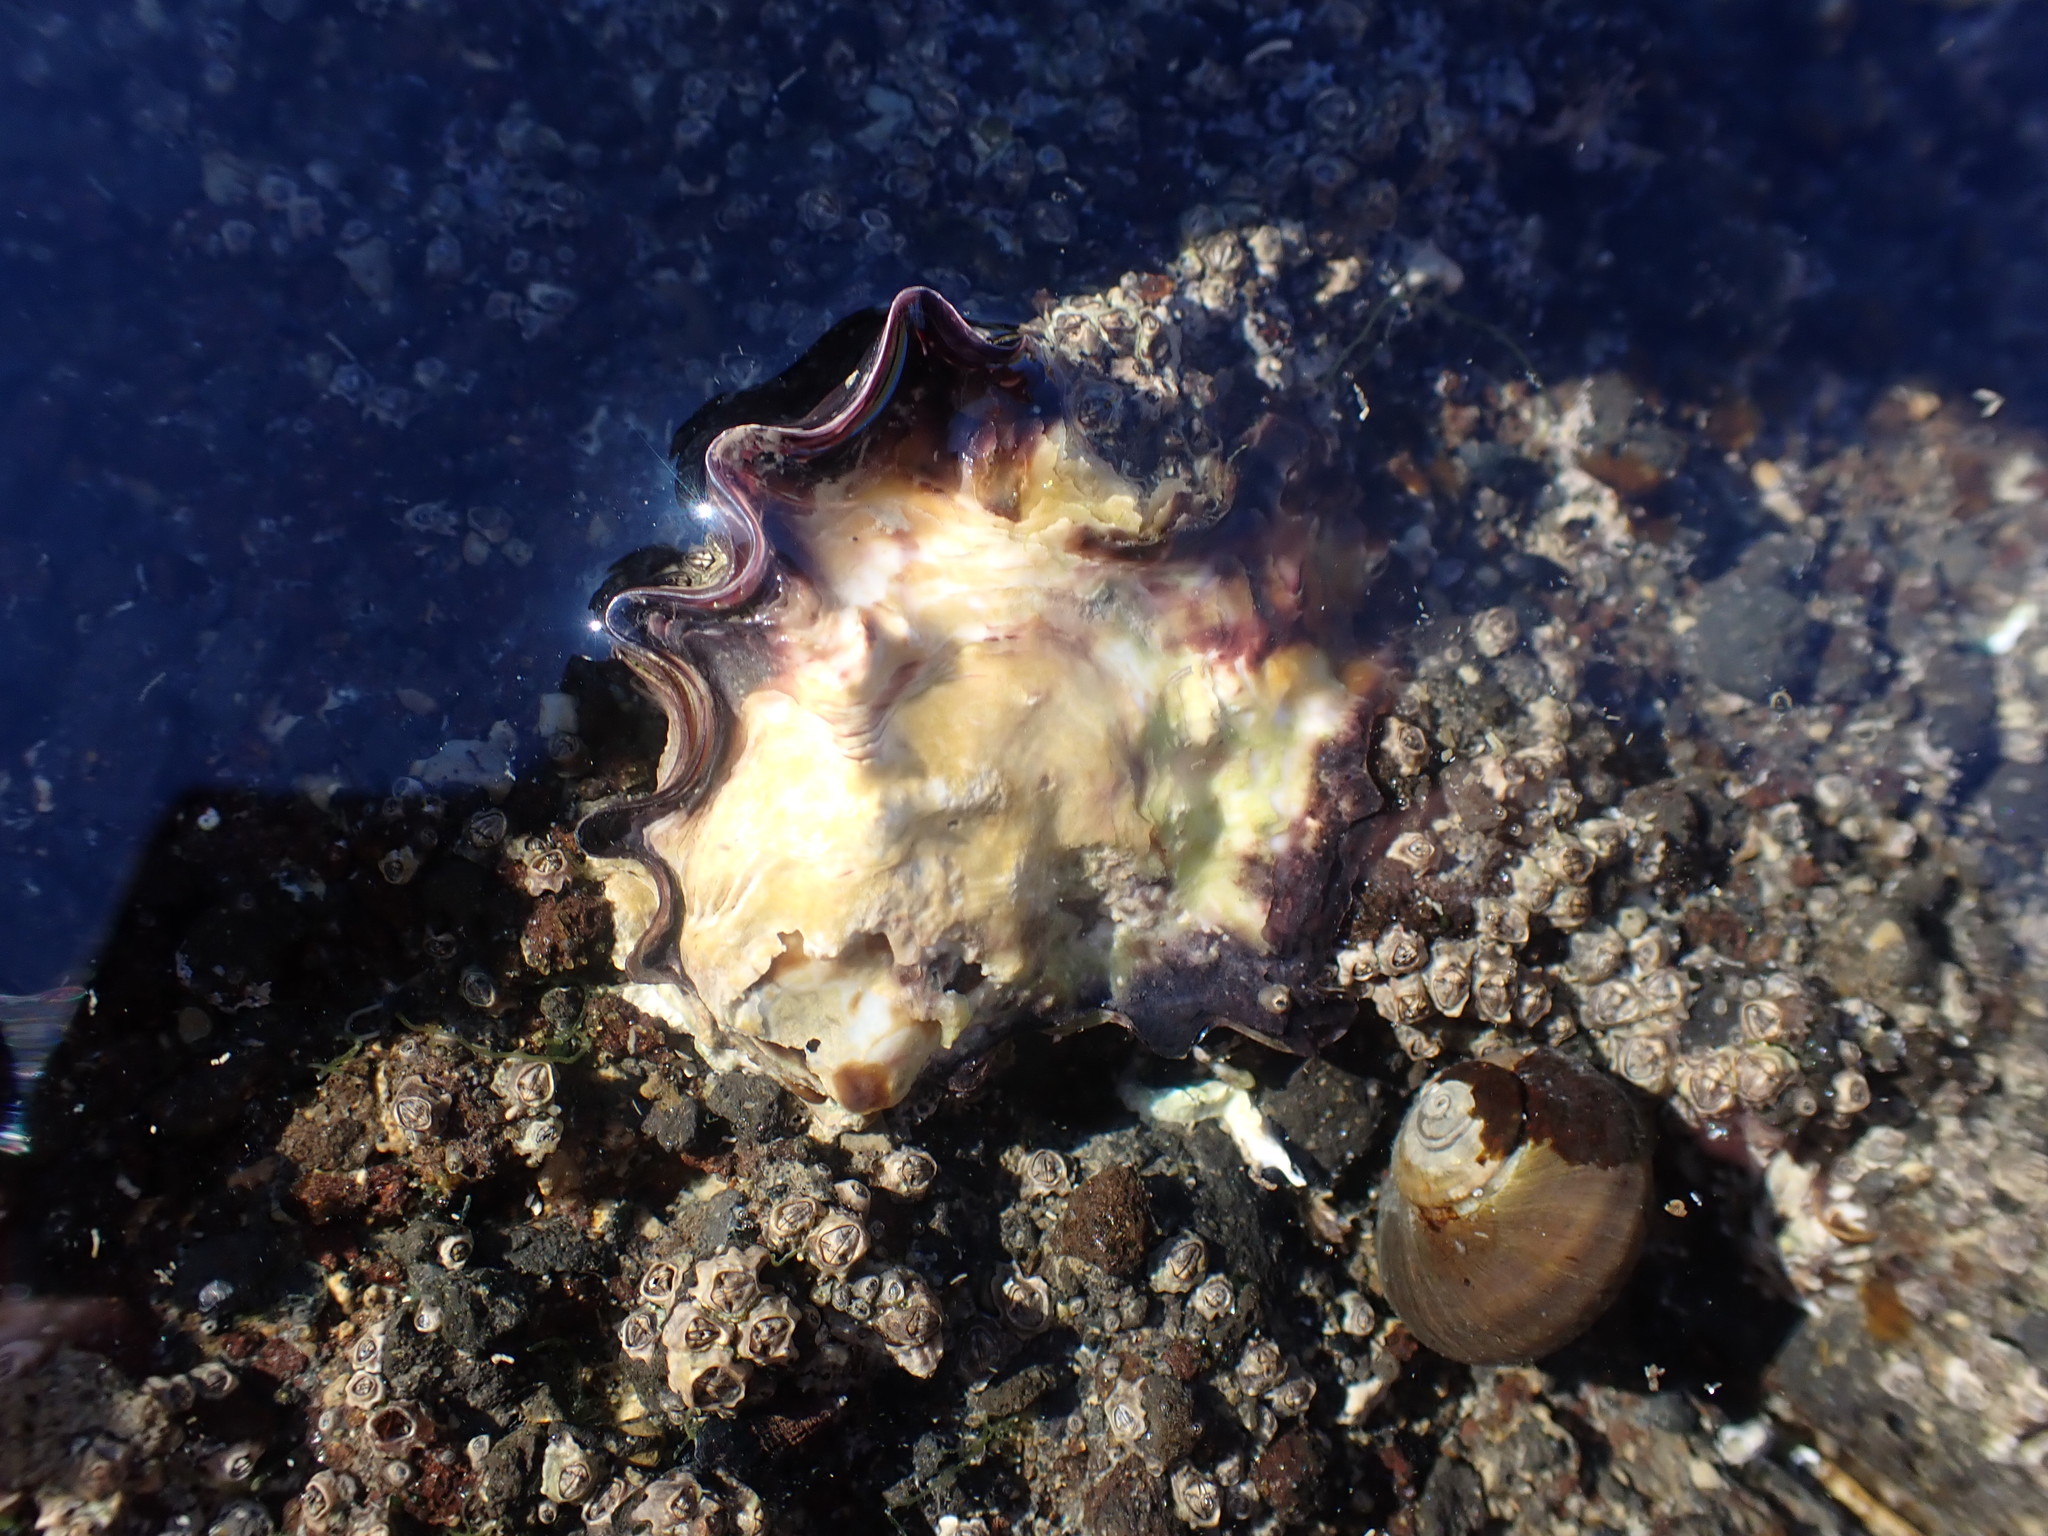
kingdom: Animalia
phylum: Mollusca
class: Bivalvia
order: Ostreida
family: Ostreidae
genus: Saccostrea
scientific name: Saccostrea glomerata
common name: Sydney cupped oyster
